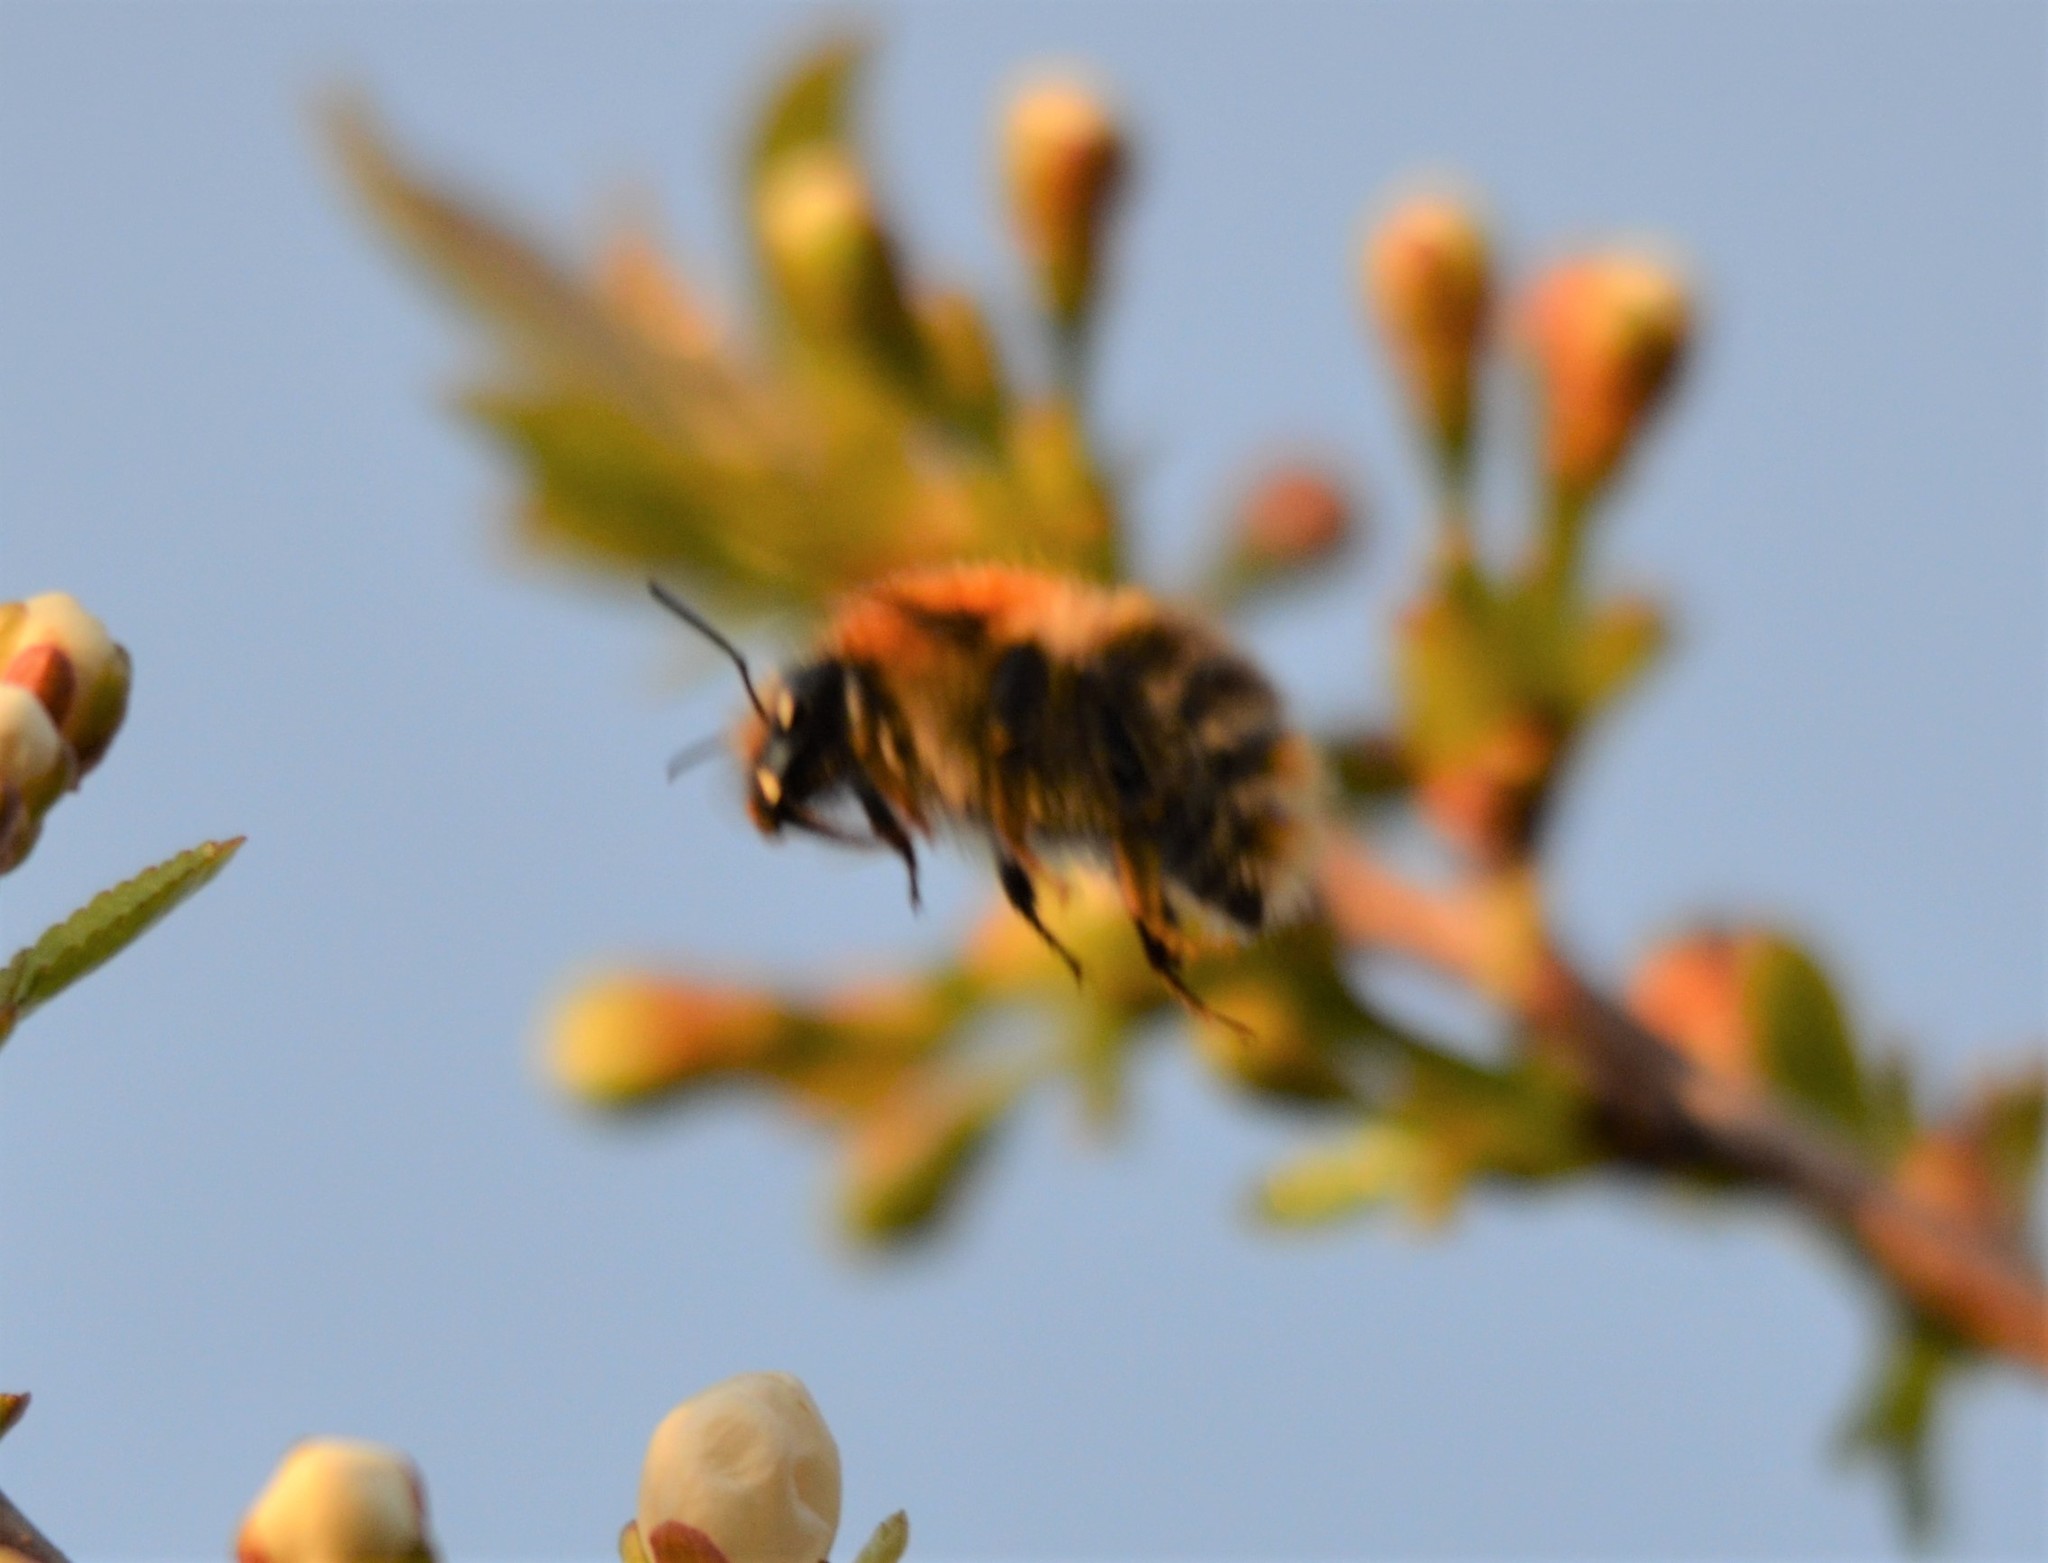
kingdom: Animalia
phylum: Arthropoda
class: Insecta
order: Hymenoptera
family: Apidae
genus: Bombus
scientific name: Bombus pascuorum
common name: Common carder bee
